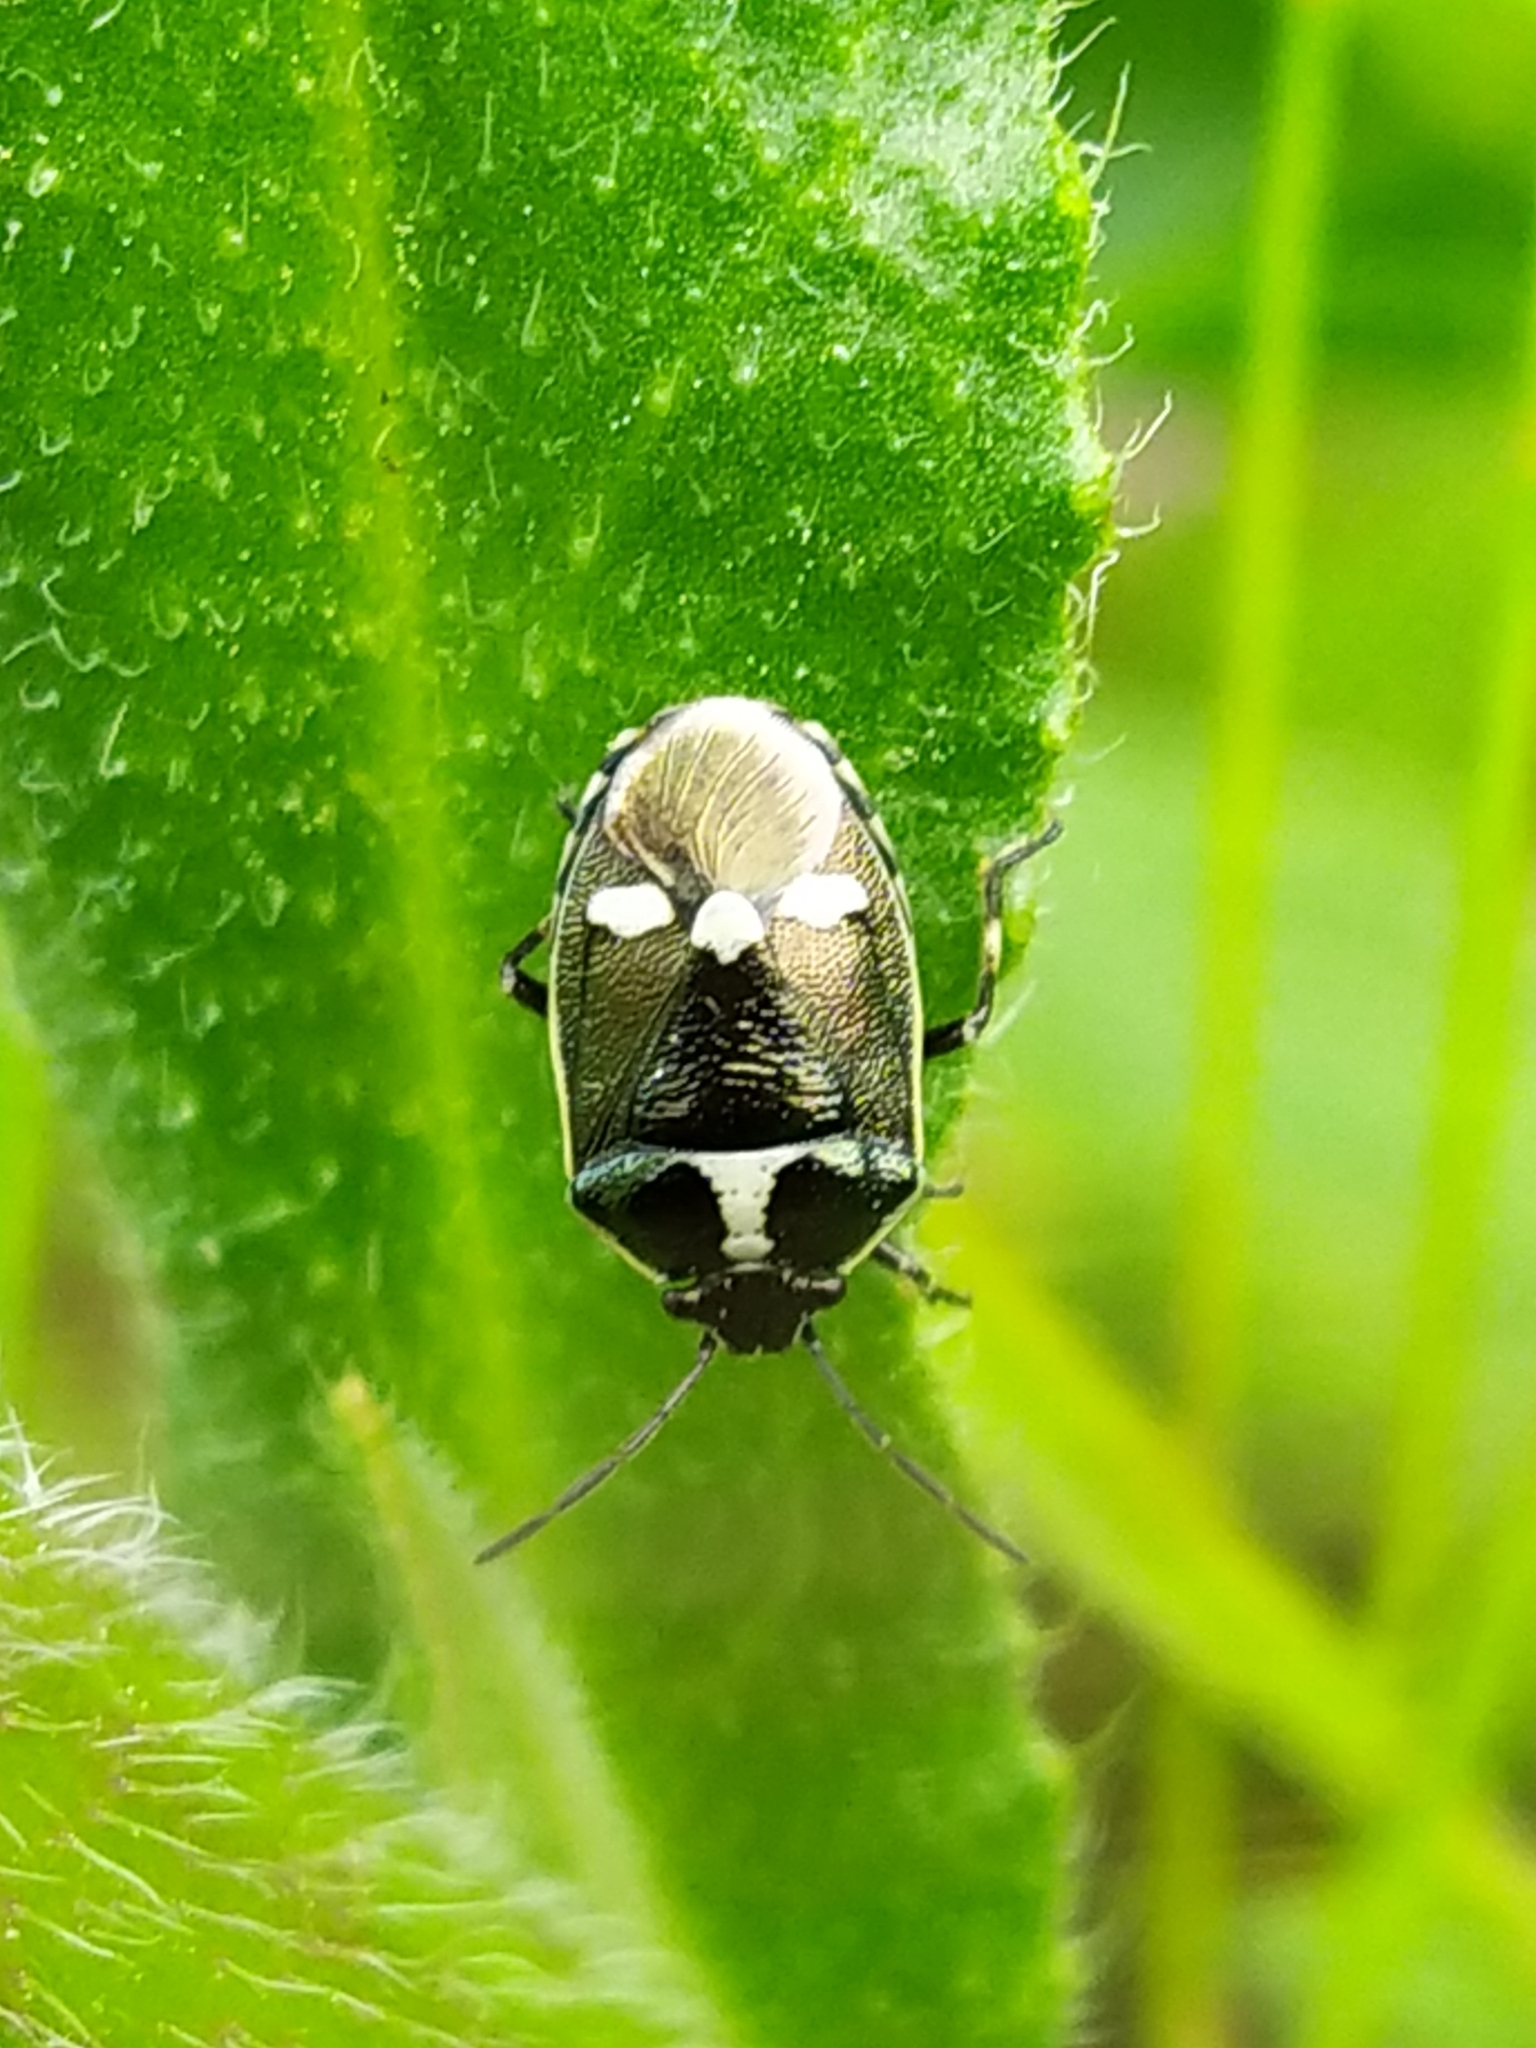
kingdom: Animalia
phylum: Arthropoda
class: Insecta
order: Hemiptera
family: Pentatomidae
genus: Eurydema
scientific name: Eurydema oleracea
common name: Cabbage bug
